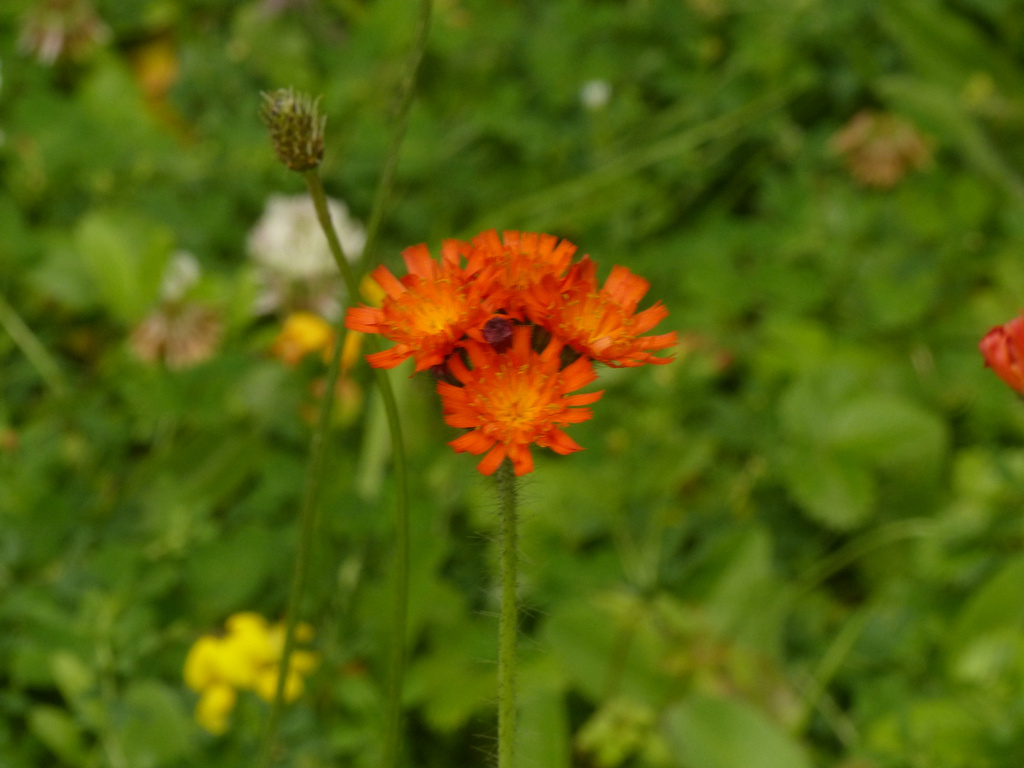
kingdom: Plantae
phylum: Tracheophyta
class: Magnoliopsida
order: Asterales
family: Asteraceae
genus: Pilosella
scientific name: Pilosella aurantiaca
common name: Fox-and-cubs
